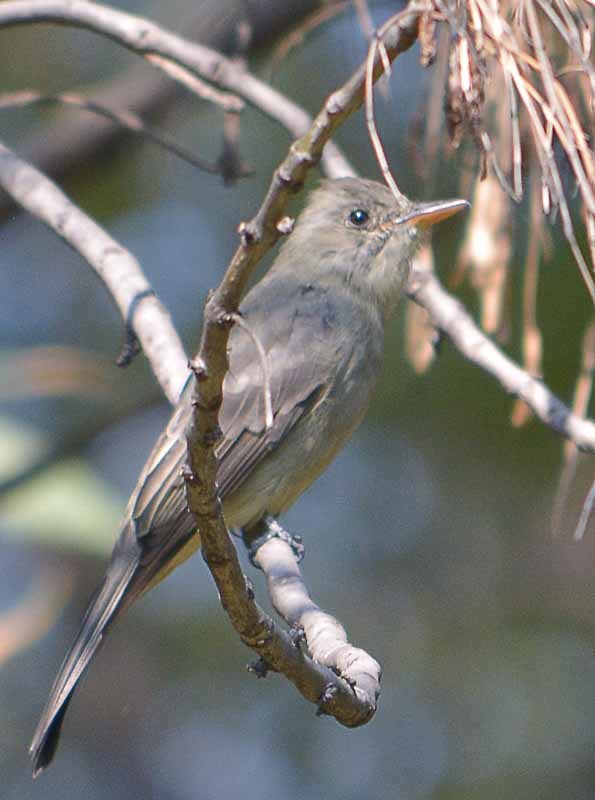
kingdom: Animalia
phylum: Chordata
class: Aves
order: Passeriformes
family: Tyrannidae
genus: Contopus
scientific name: Contopus pertinax
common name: Greater pewee
